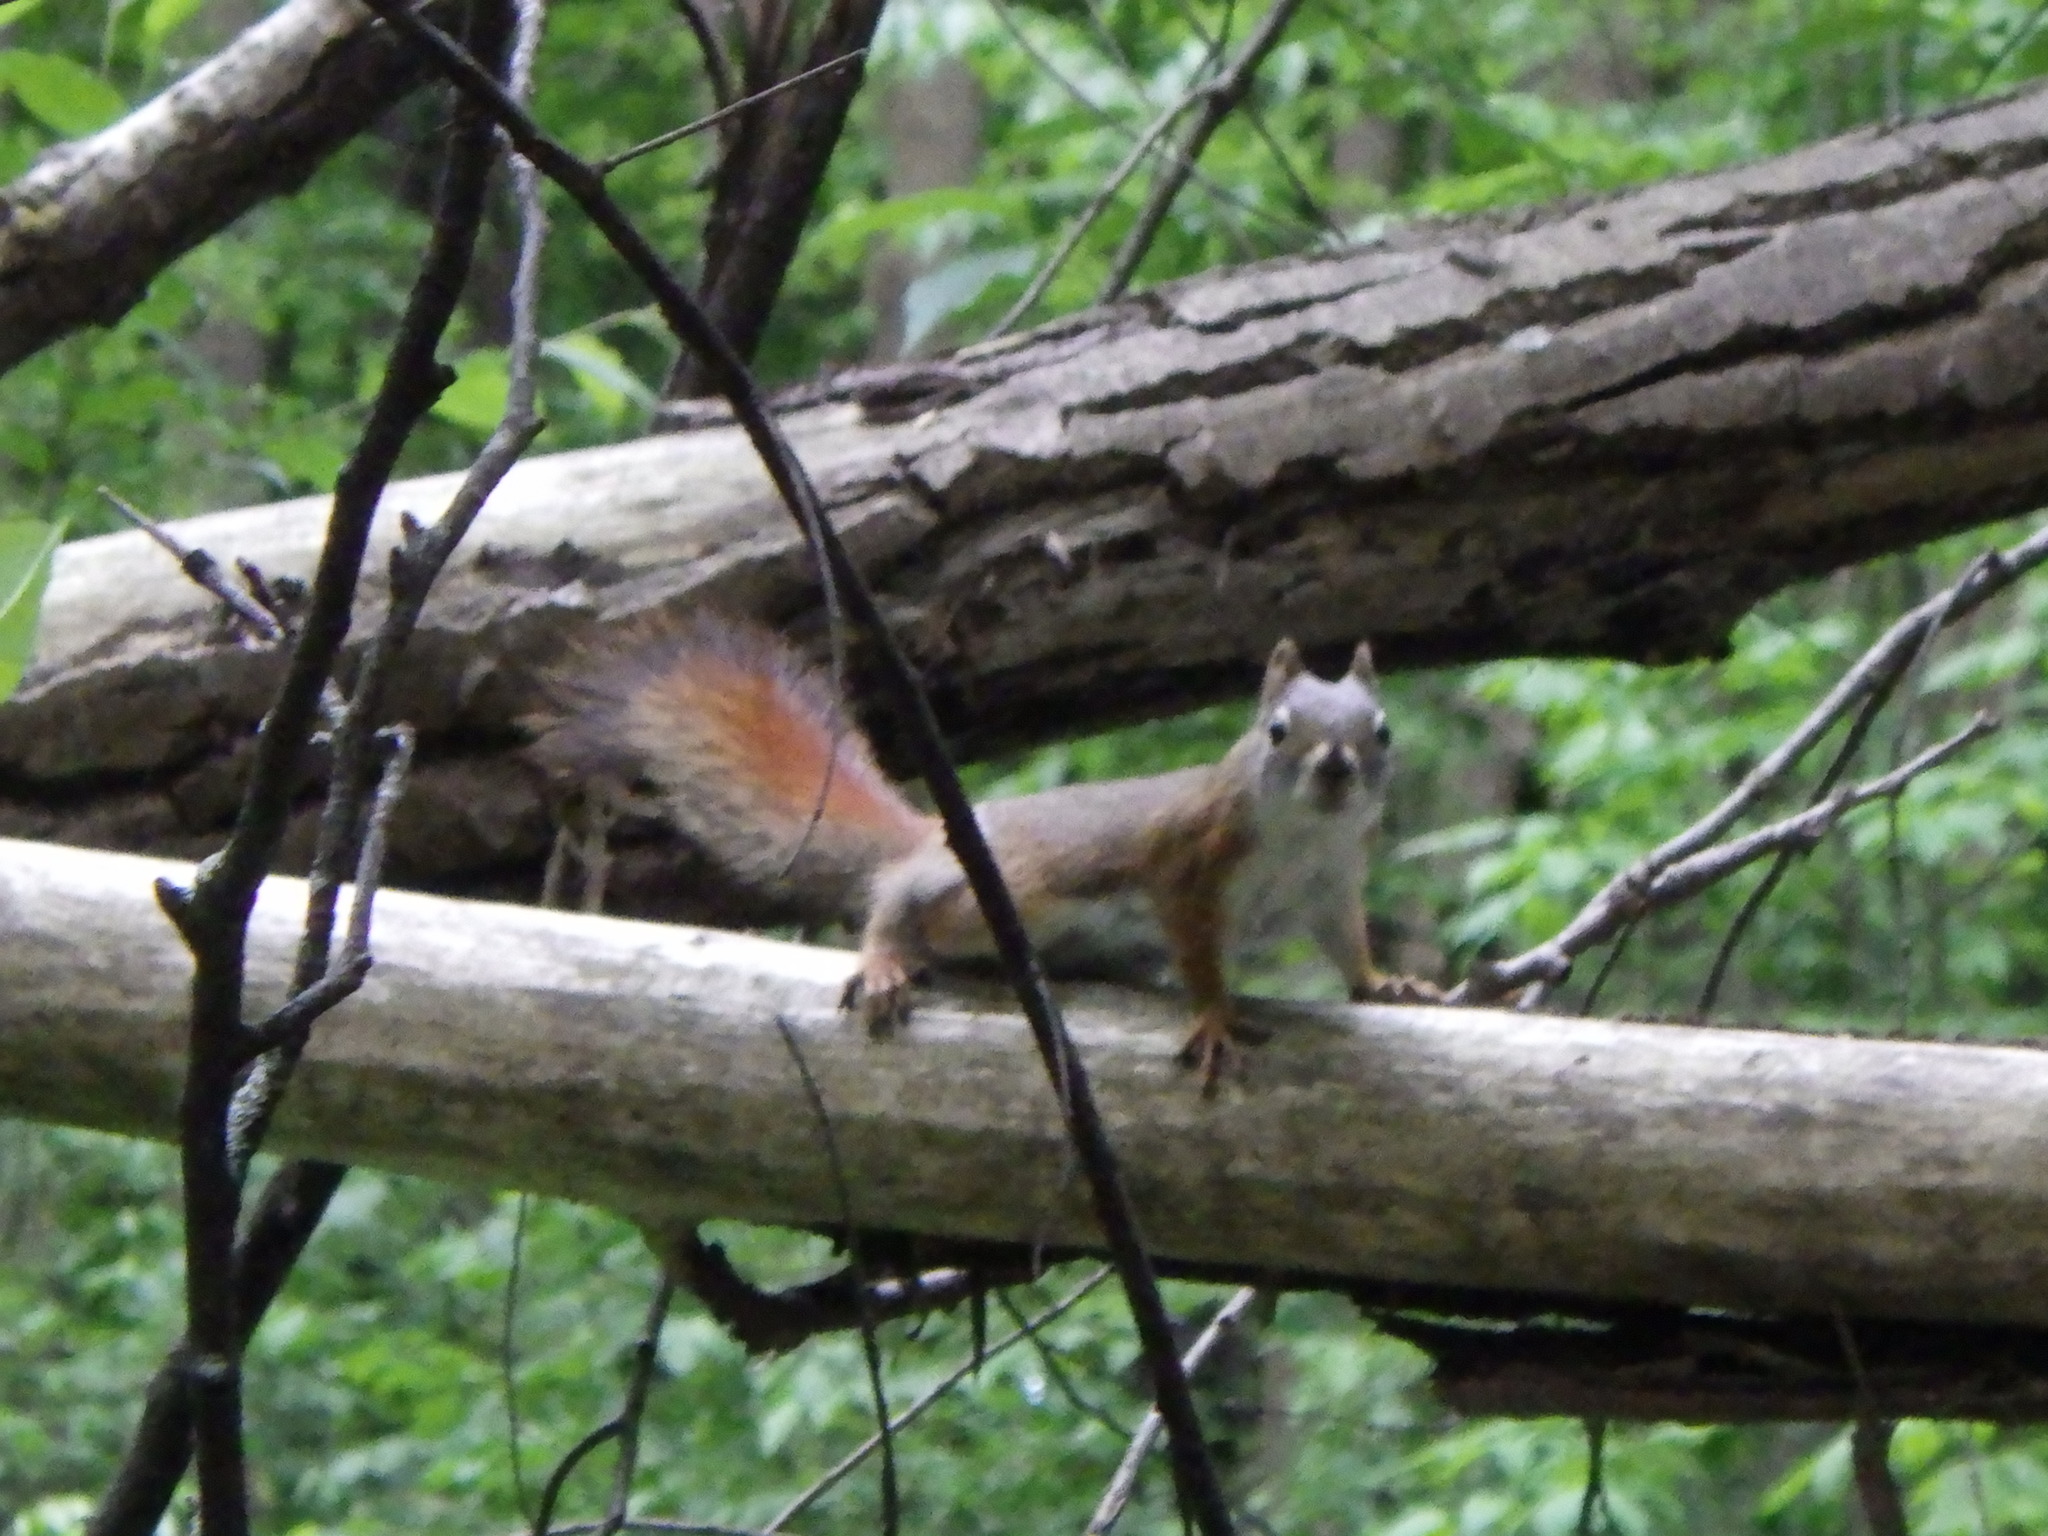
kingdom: Animalia
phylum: Chordata
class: Mammalia
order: Rodentia
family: Sciuridae
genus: Tamiasciurus
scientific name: Tamiasciurus hudsonicus
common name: Red squirrel
